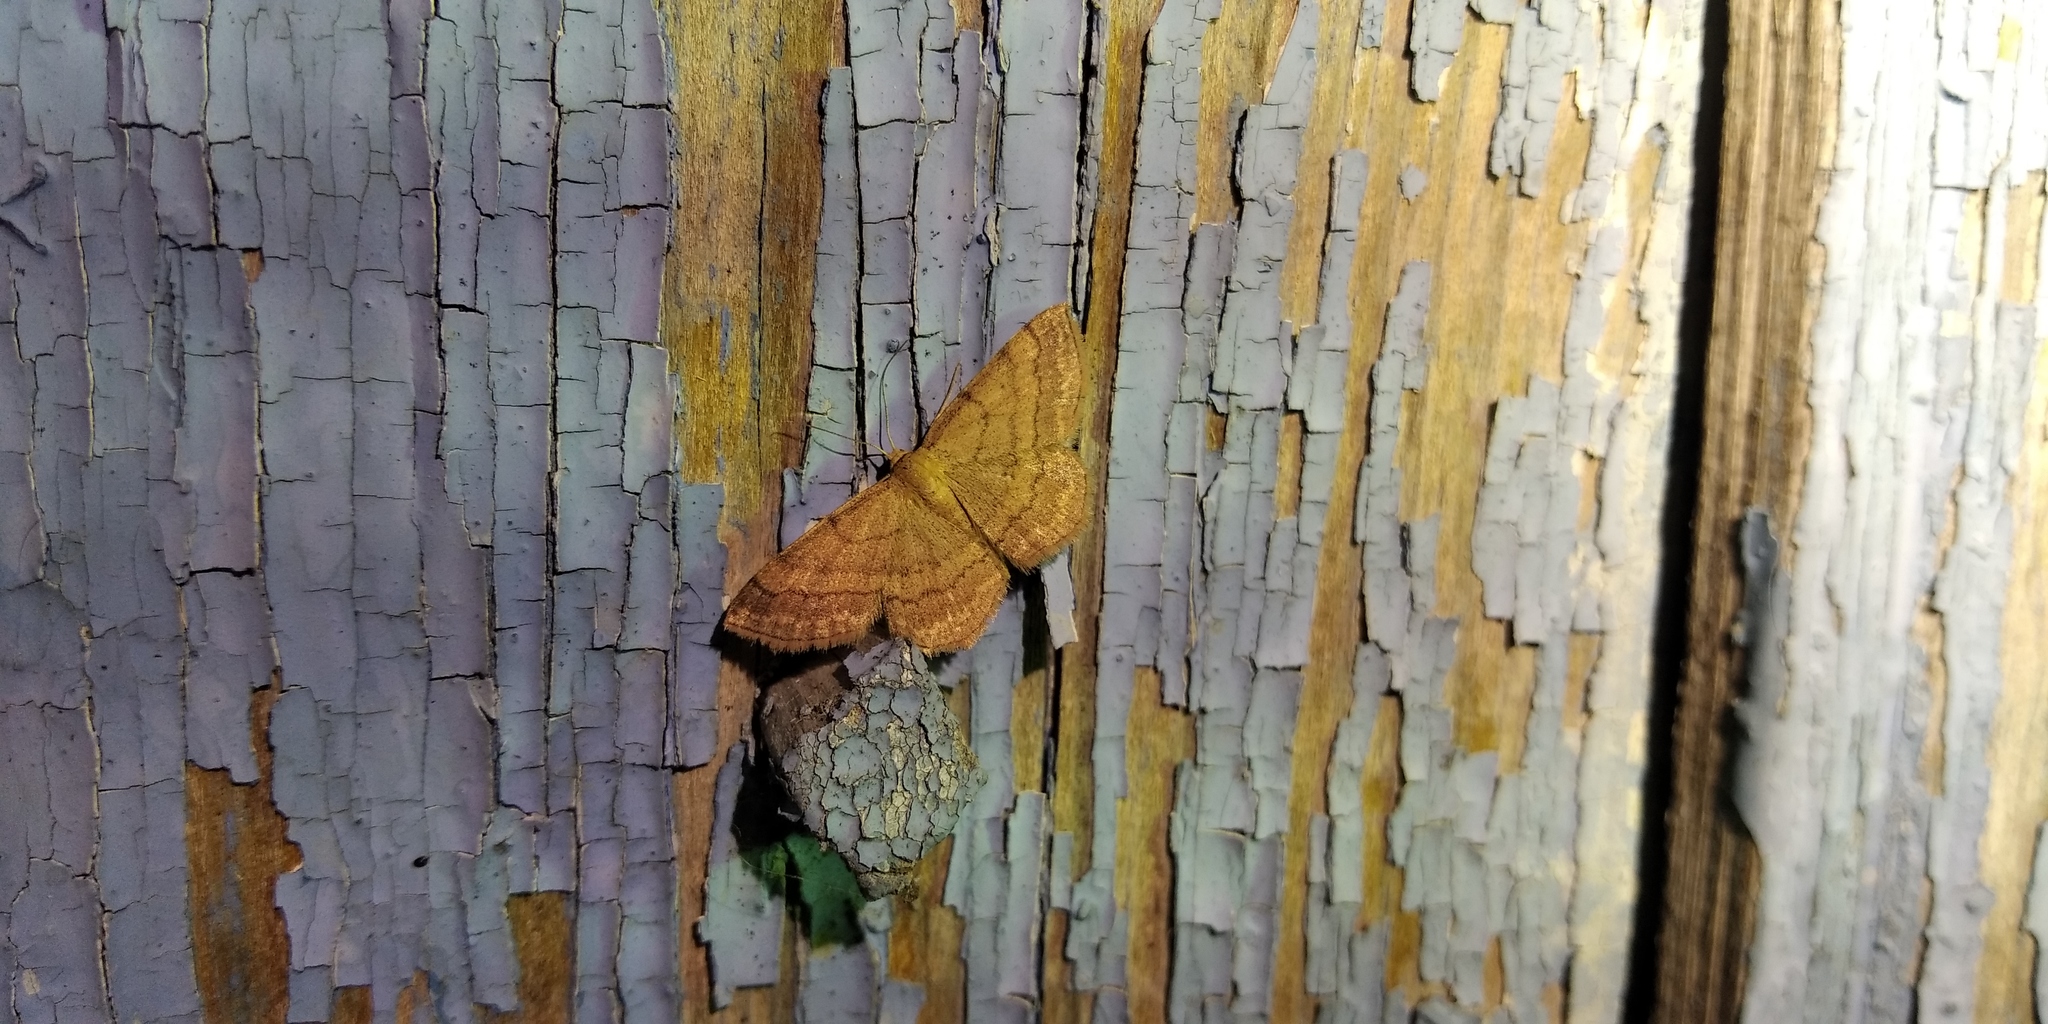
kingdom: Animalia
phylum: Arthropoda
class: Insecta
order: Lepidoptera
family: Geometridae
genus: Scopula
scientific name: Scopula rubiginata
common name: Tawny wave
